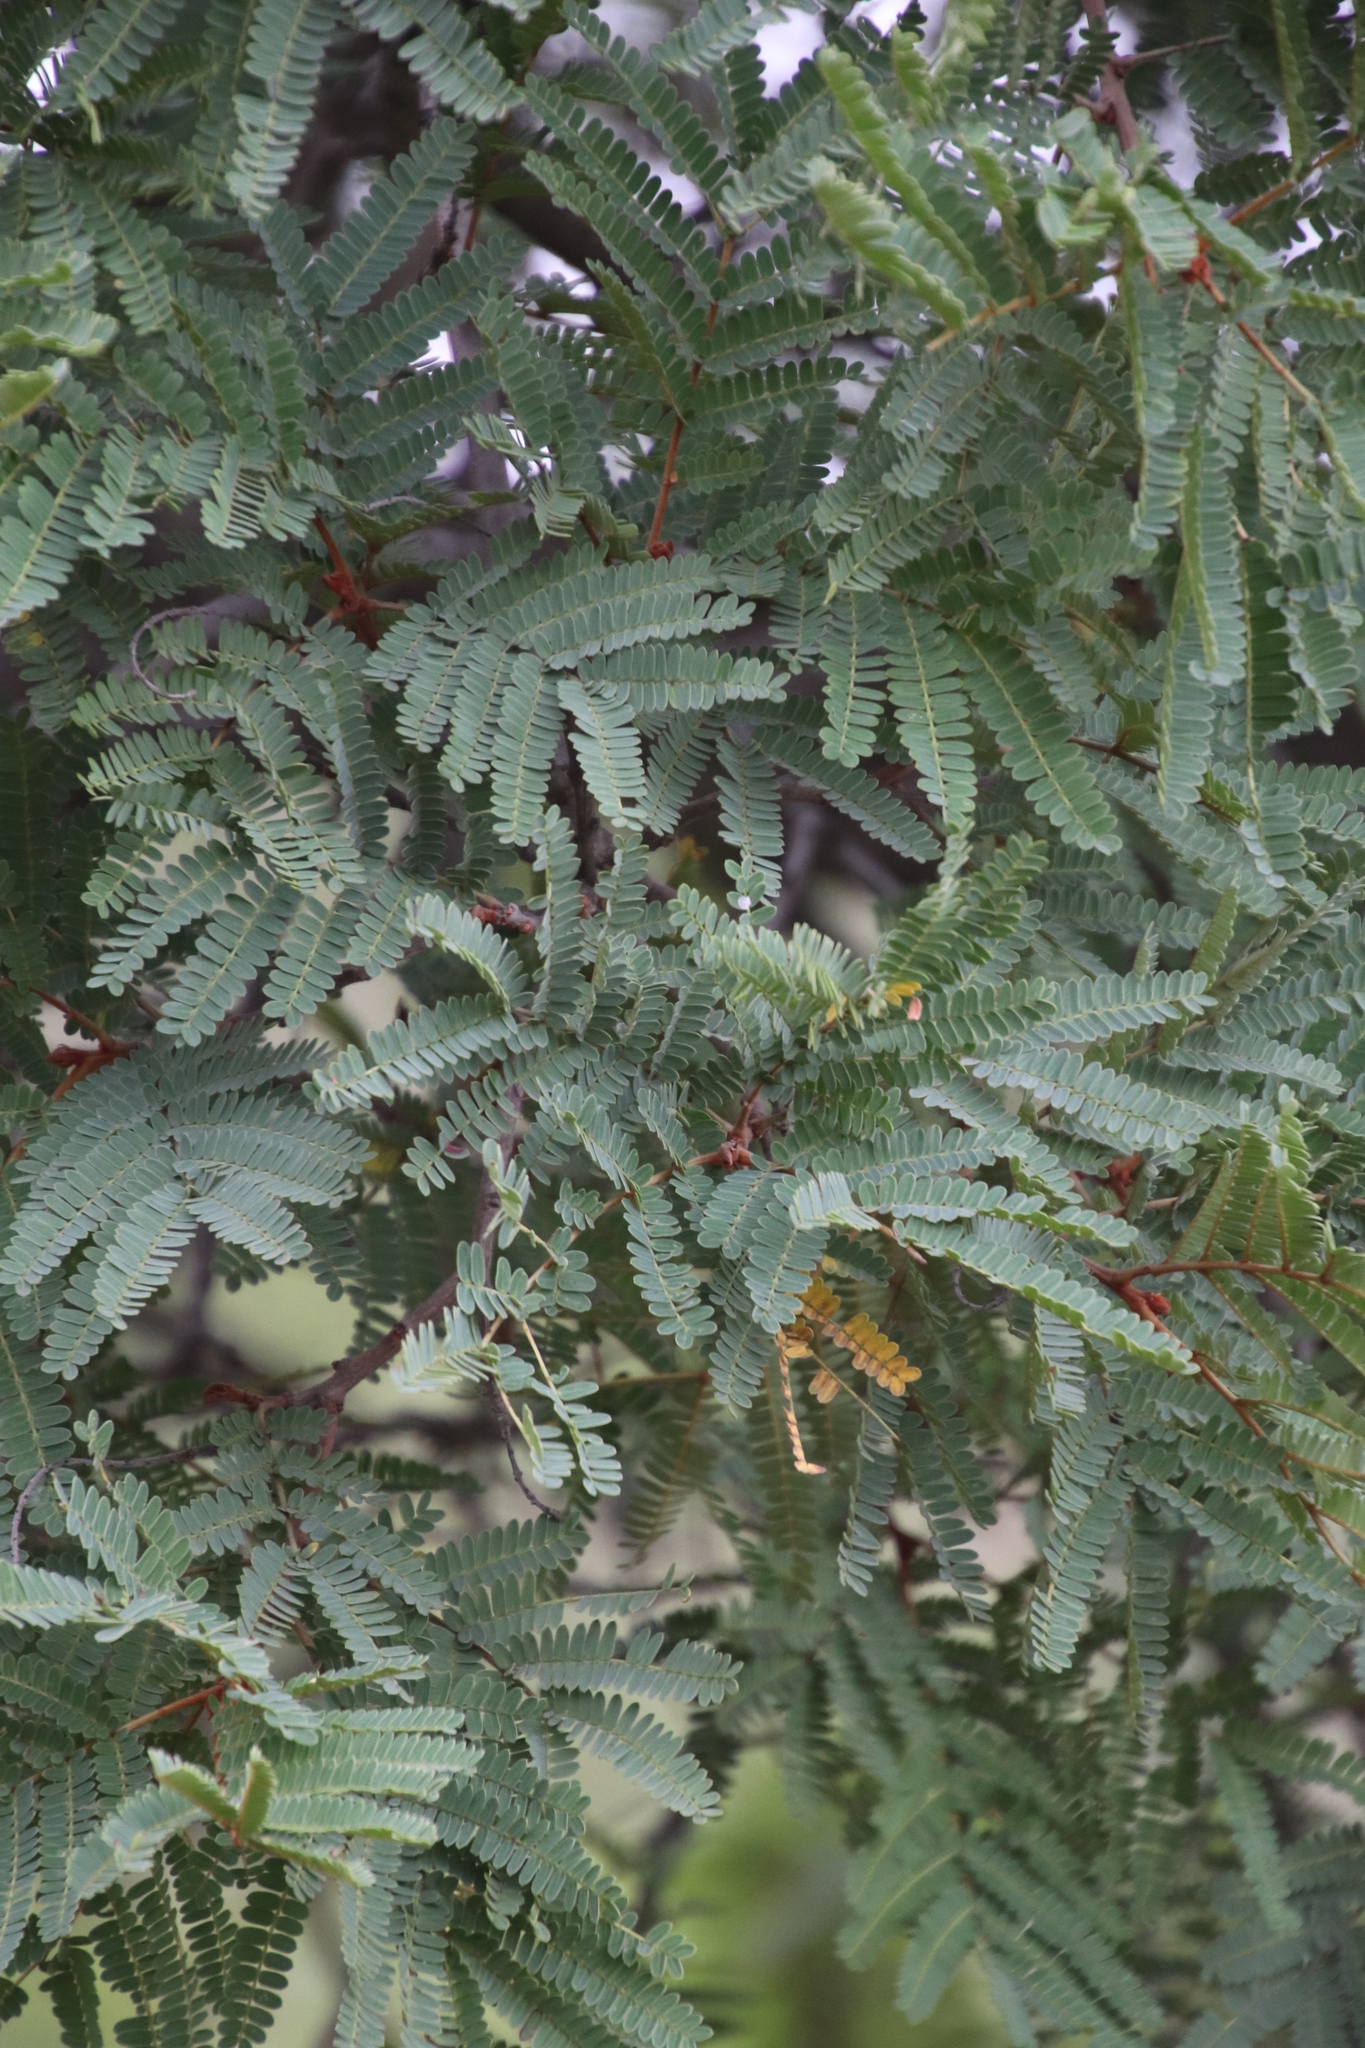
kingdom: Plantae
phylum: Tracheophyta
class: Magnoliopsida
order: Fabales
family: Fabaceae
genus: Peltophorum
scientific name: Peltophorum africanum
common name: African black wattle
